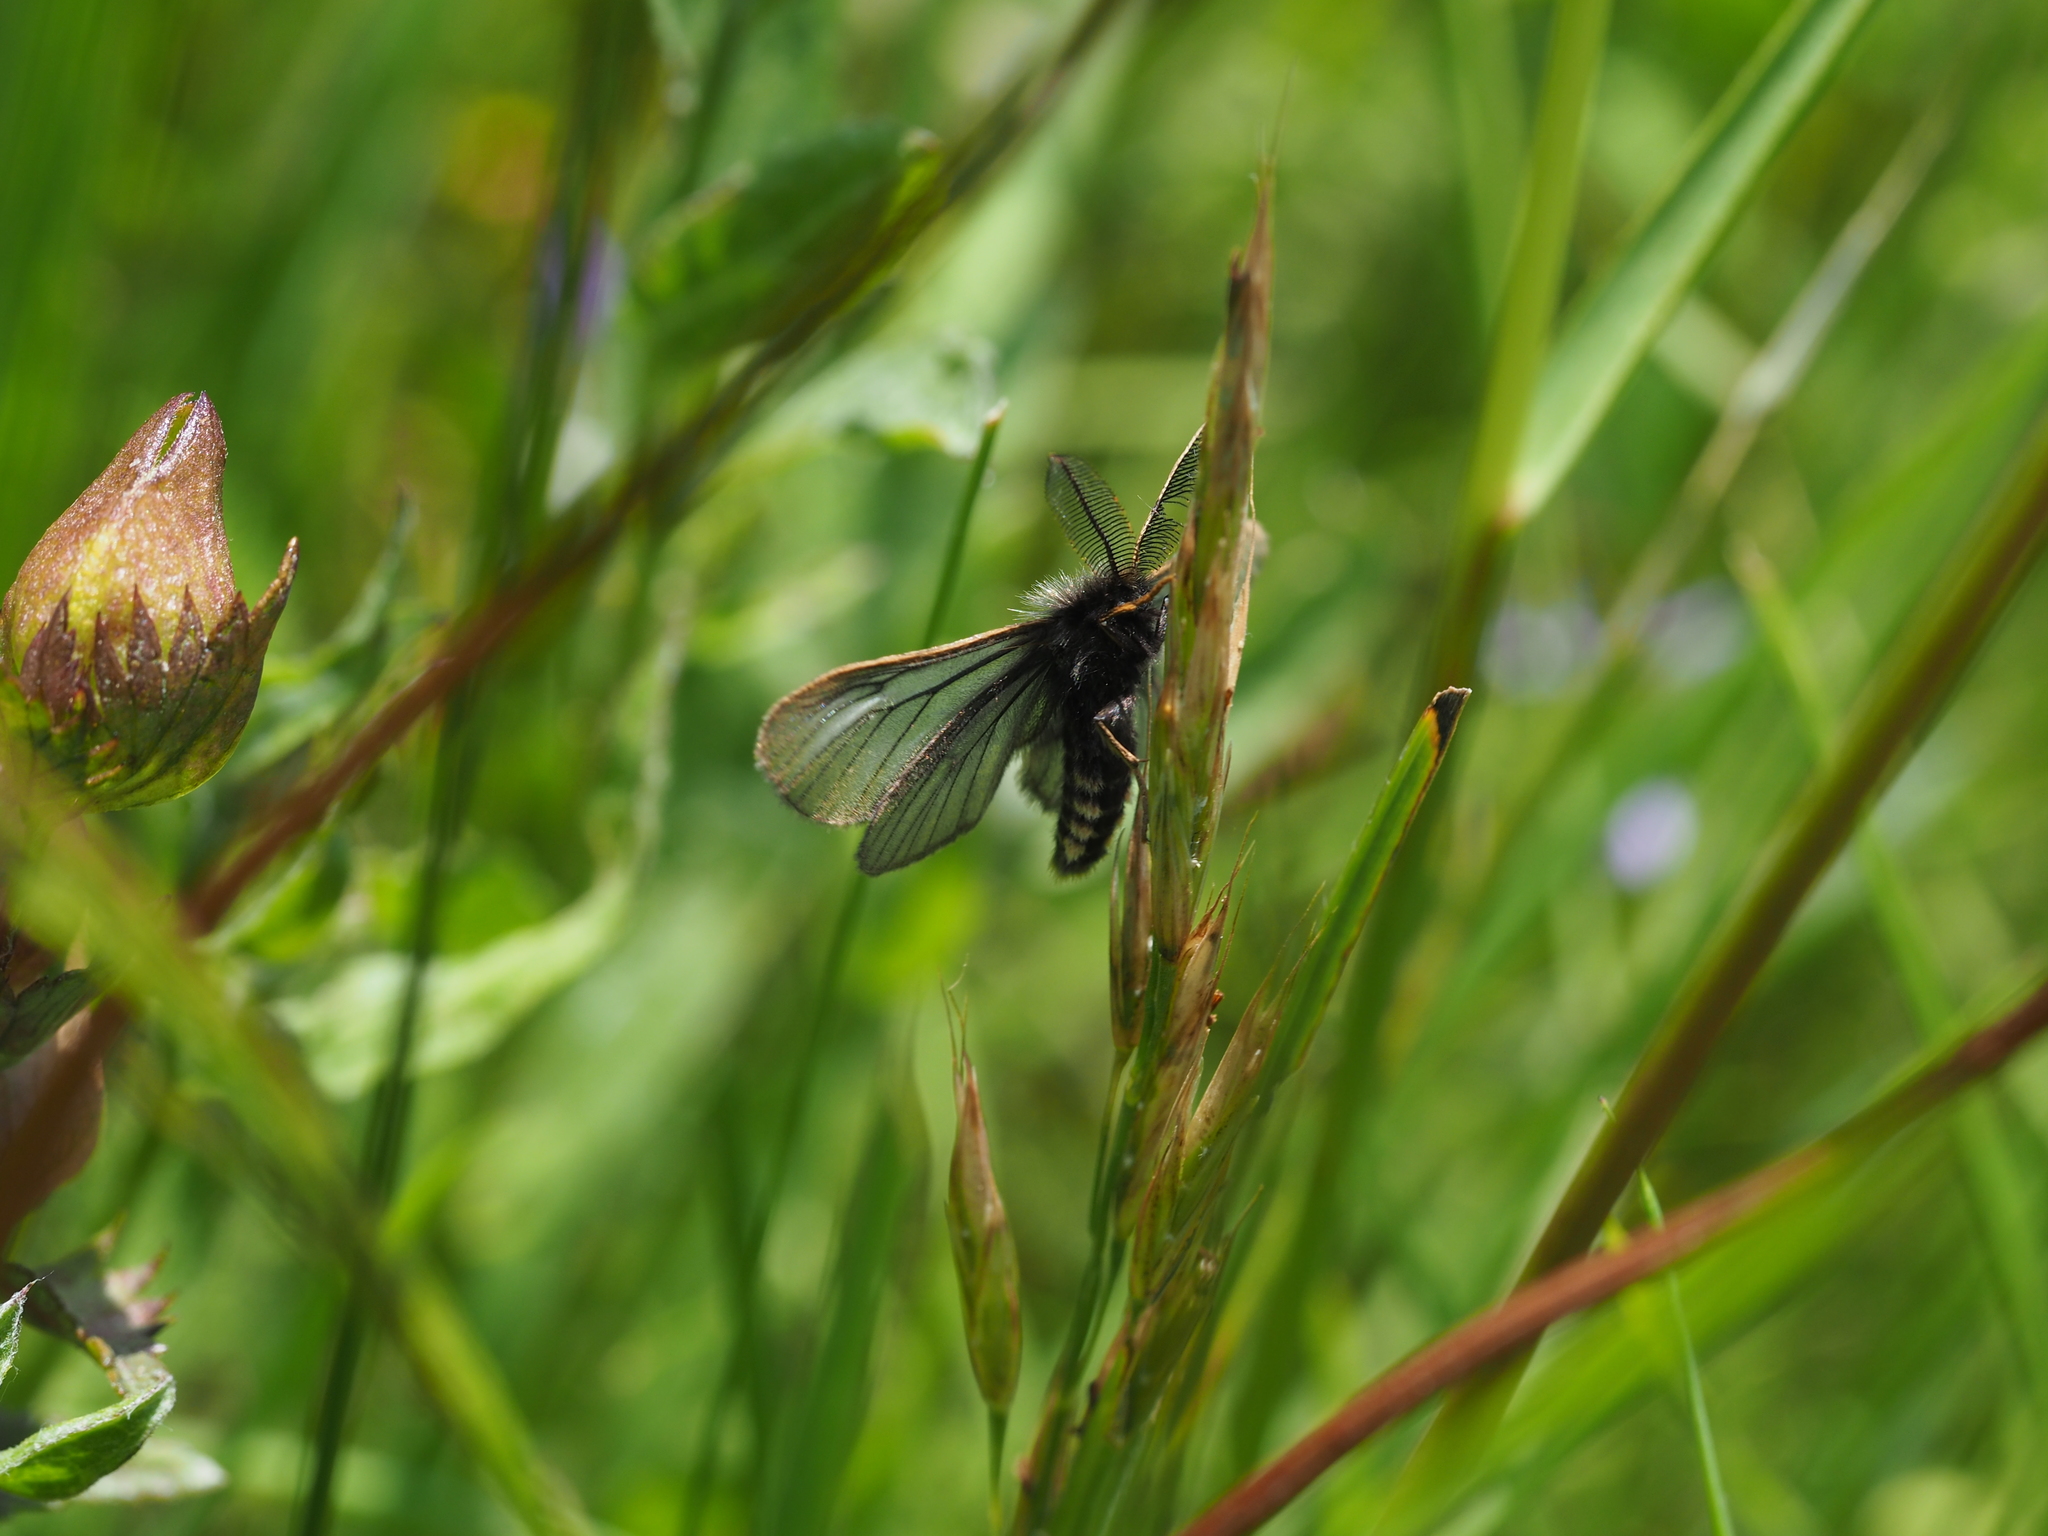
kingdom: Animalia
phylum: Arthropoda
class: Insecta
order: Lepidoptera
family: Erebidae
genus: Penthophera
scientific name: Penthophera morio
